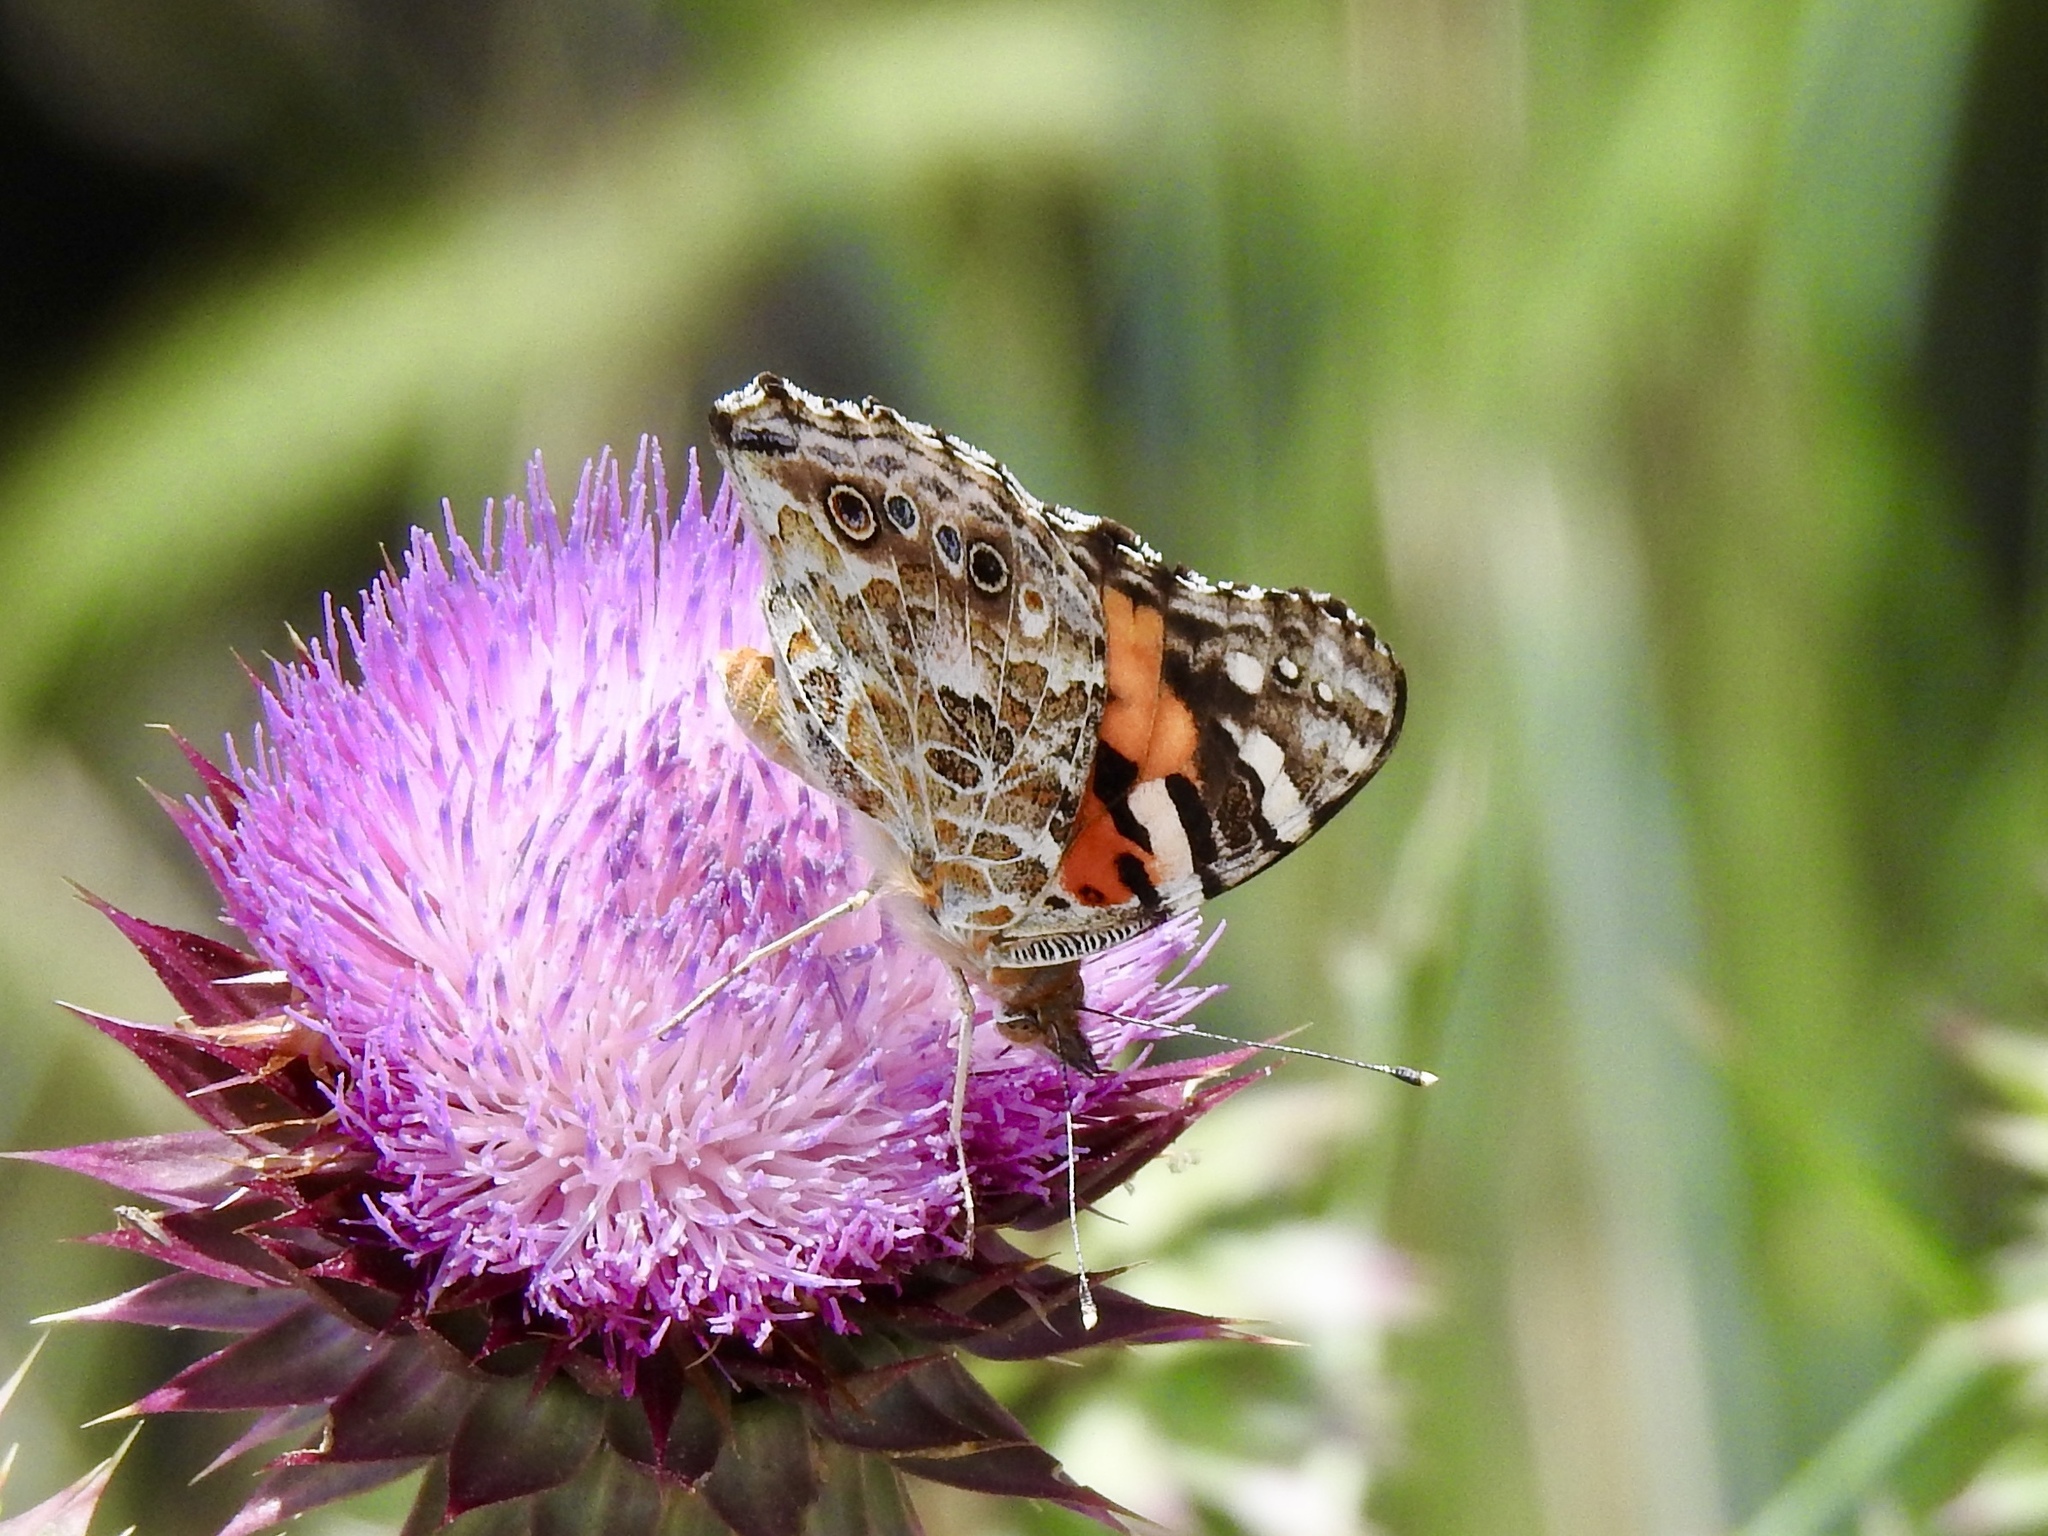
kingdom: Animalia
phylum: Arthropoda
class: Insecta
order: Lepidoptera
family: Nymphalidae
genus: Vanessa
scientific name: Vanessa cardui
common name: Painted lady
